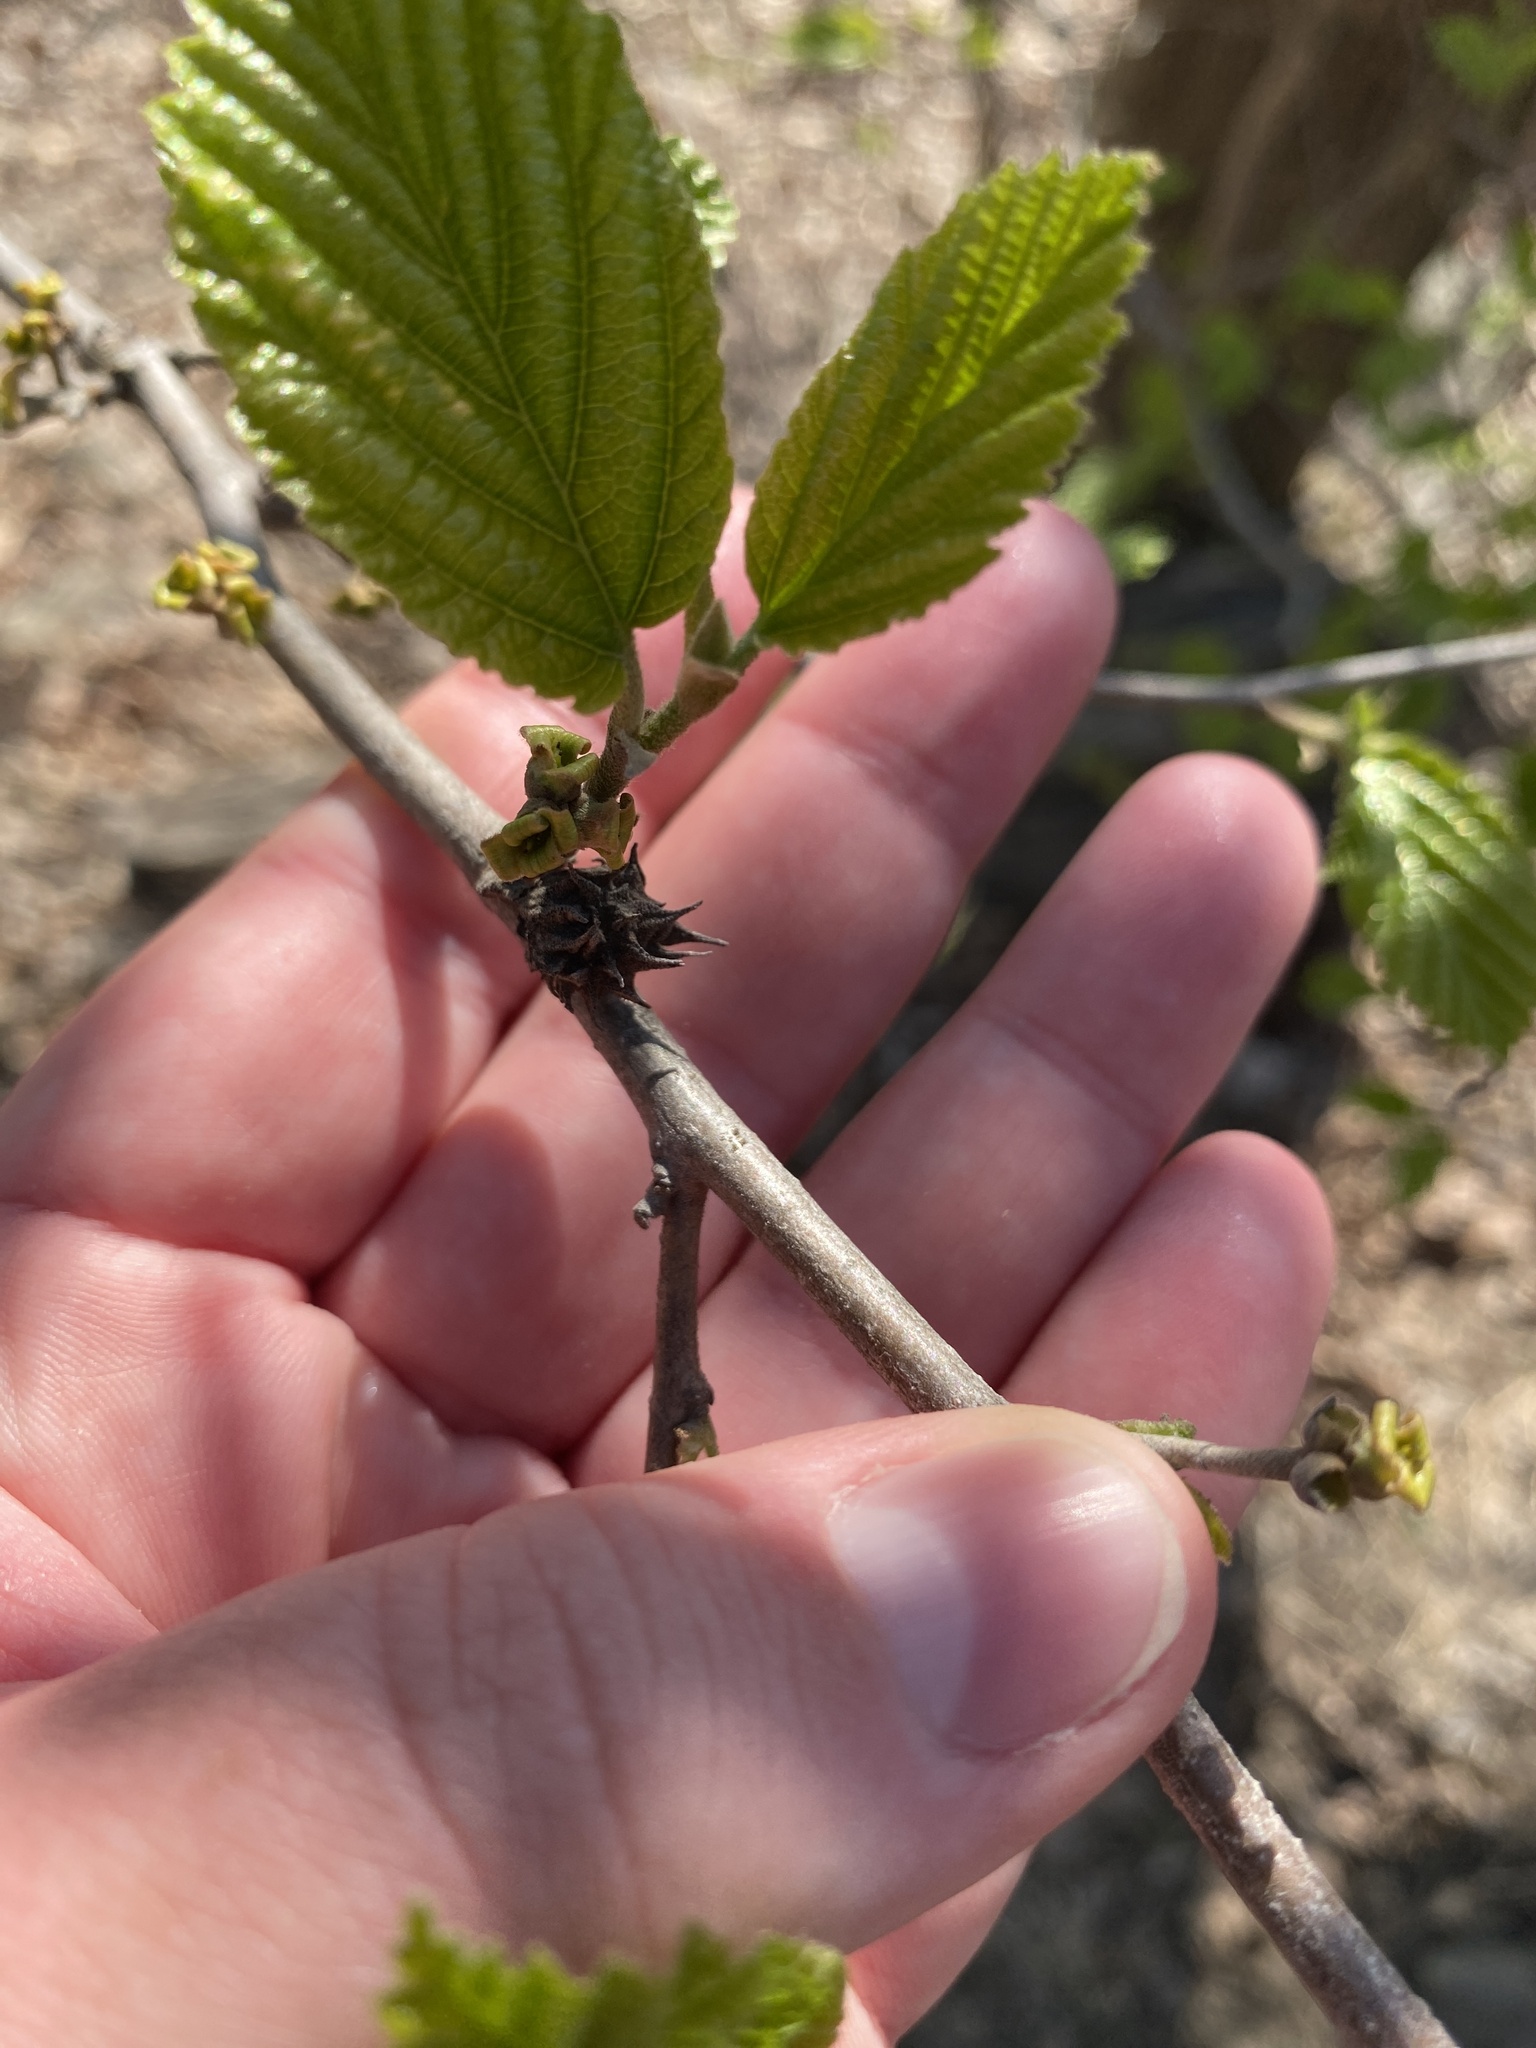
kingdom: Animalia
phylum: Arthropoda
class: Insecta
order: Hemiptera
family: Aphididae
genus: Hamamelistes
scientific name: Hamamelistes spinosus
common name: Witch hazel gall aphid
